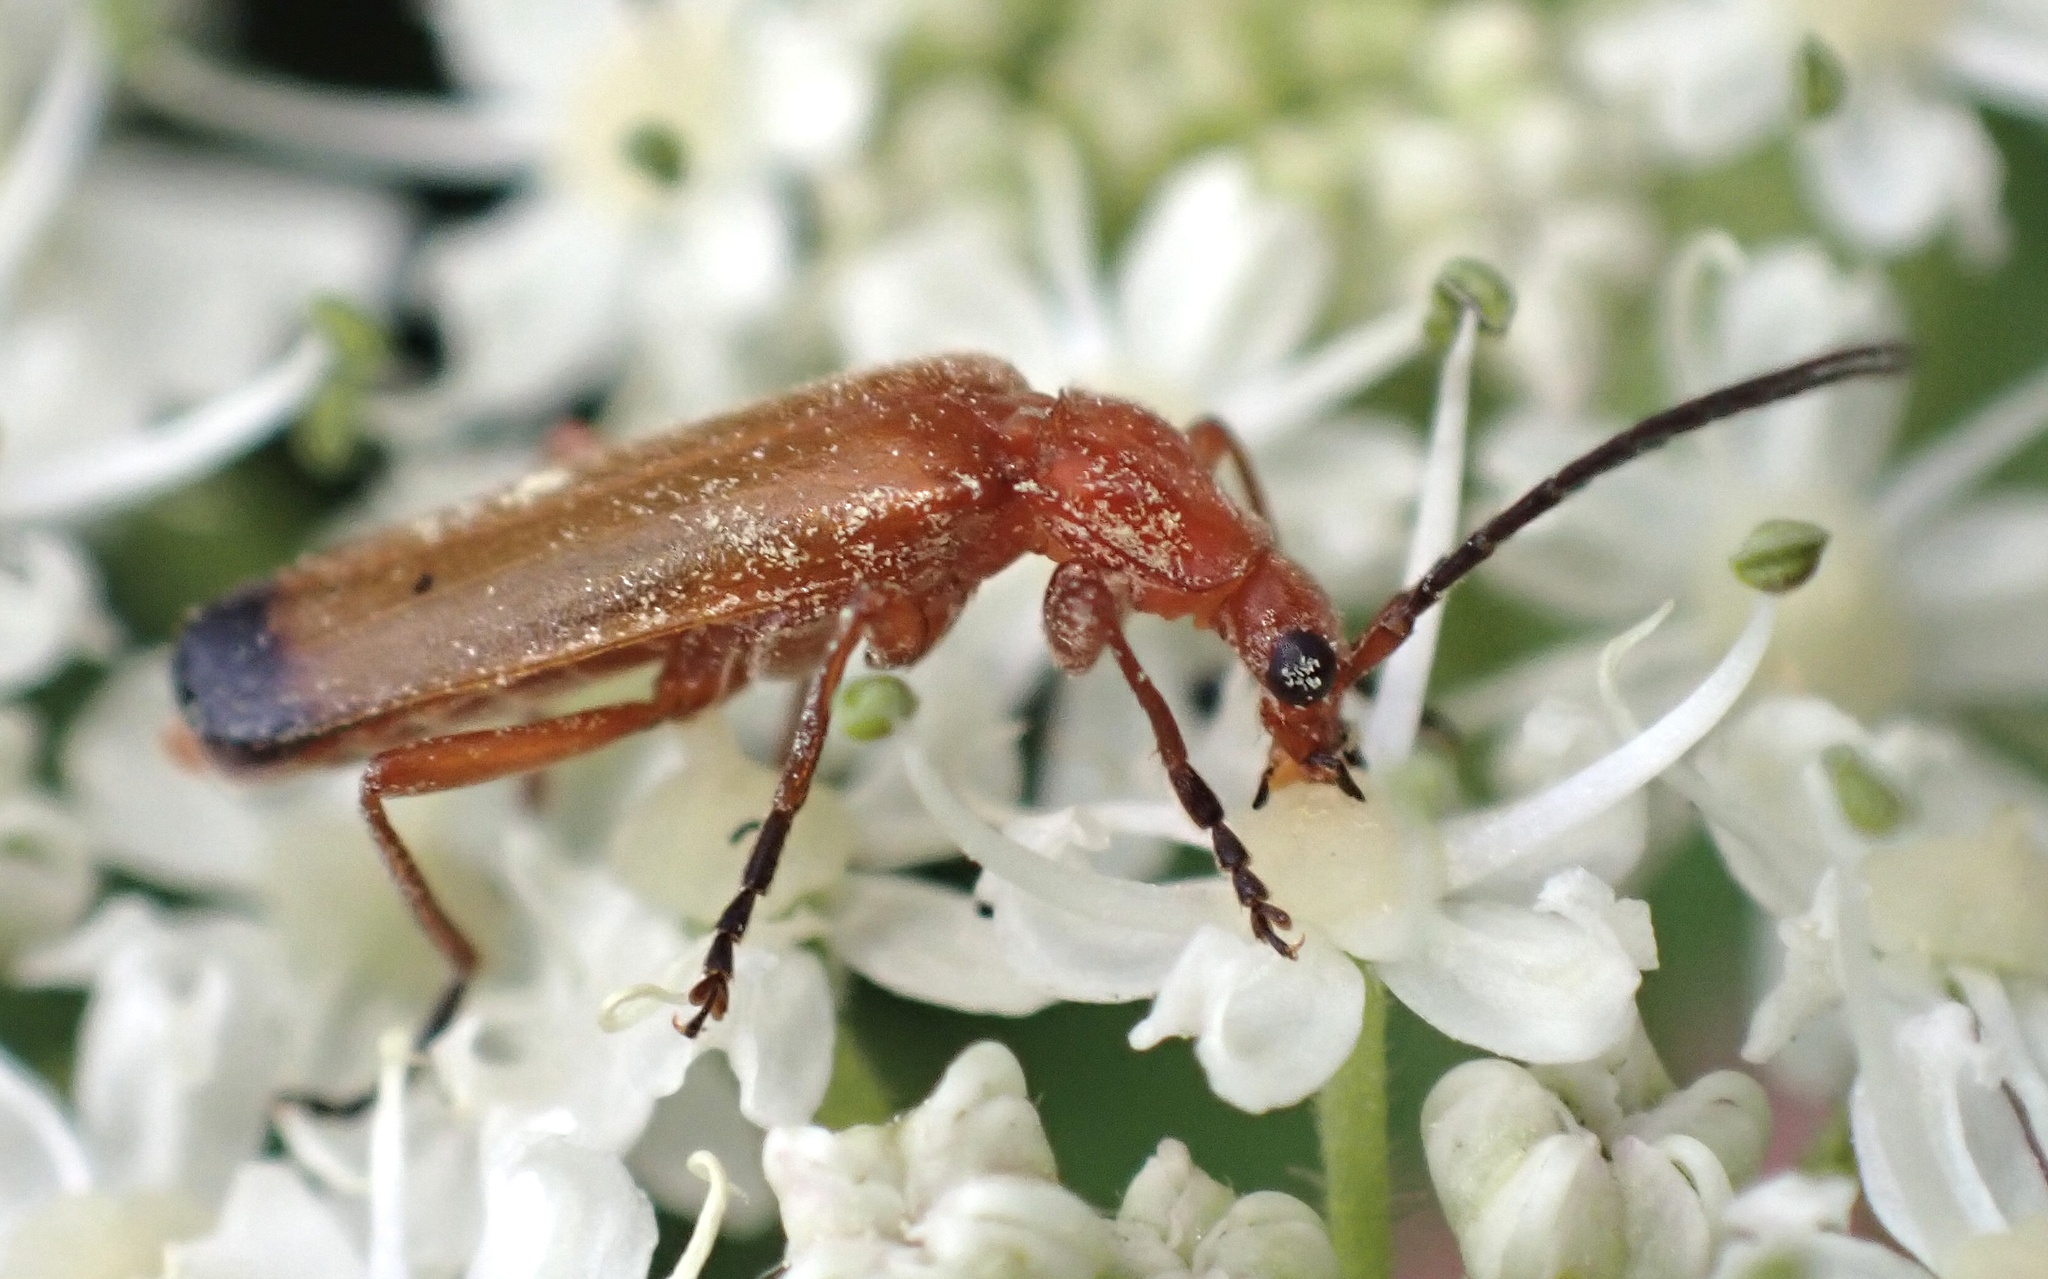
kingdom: Animalia
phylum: Arthropoda
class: Insecta
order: Coleoptera
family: Cantharidae
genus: Rhagonycha
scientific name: Rhagonycha fulva
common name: Common red soldier beetle
